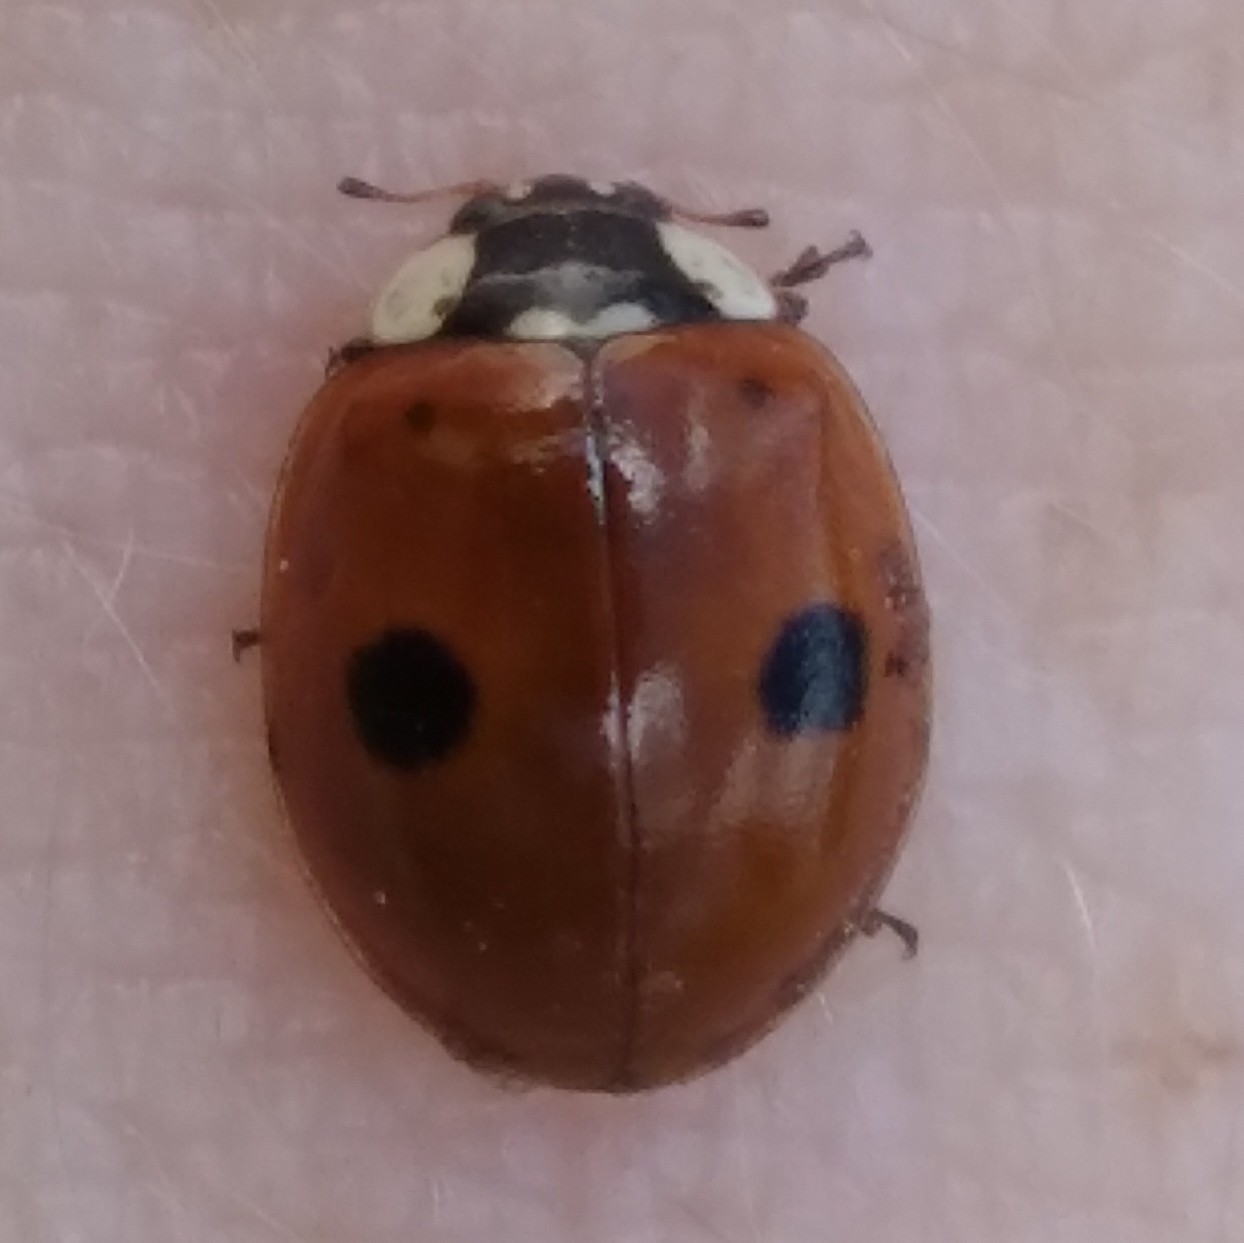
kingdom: Animalia
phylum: Arthropoda
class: Insecta
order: Coleoptera
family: Coccinellidae
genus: Adalia
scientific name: Adalia bipunctata
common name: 2-spot ladybird
